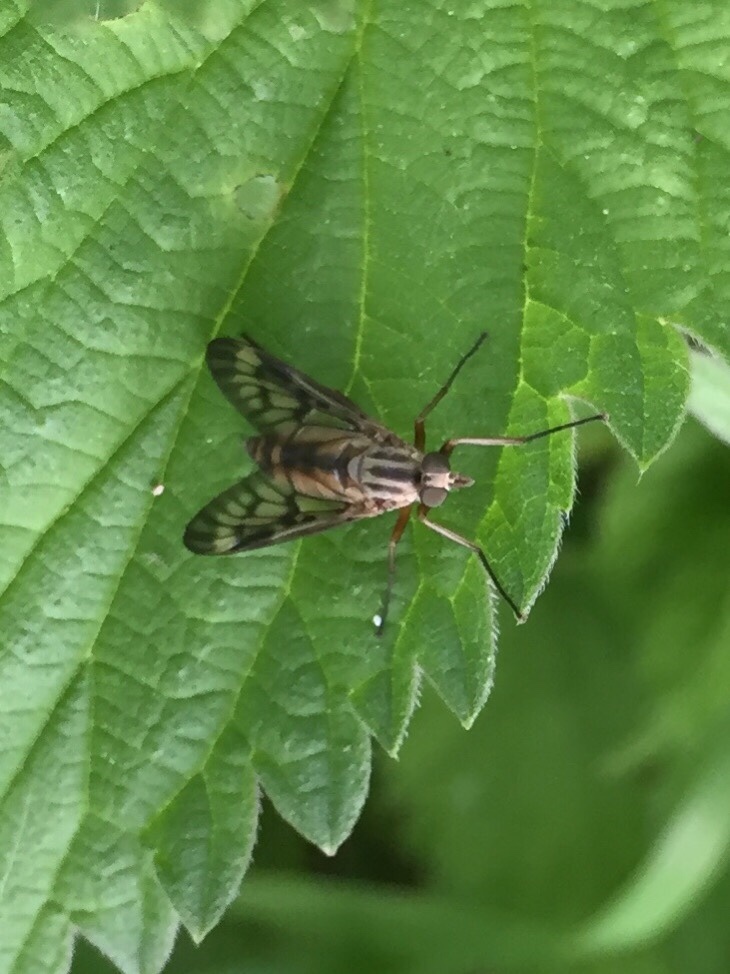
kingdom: Animalia
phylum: Arthropoda
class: Insecta
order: Diptera
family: Rhagionidae
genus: Rhagio
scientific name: Rhagio scolopacea
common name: Downlooker snipefly
